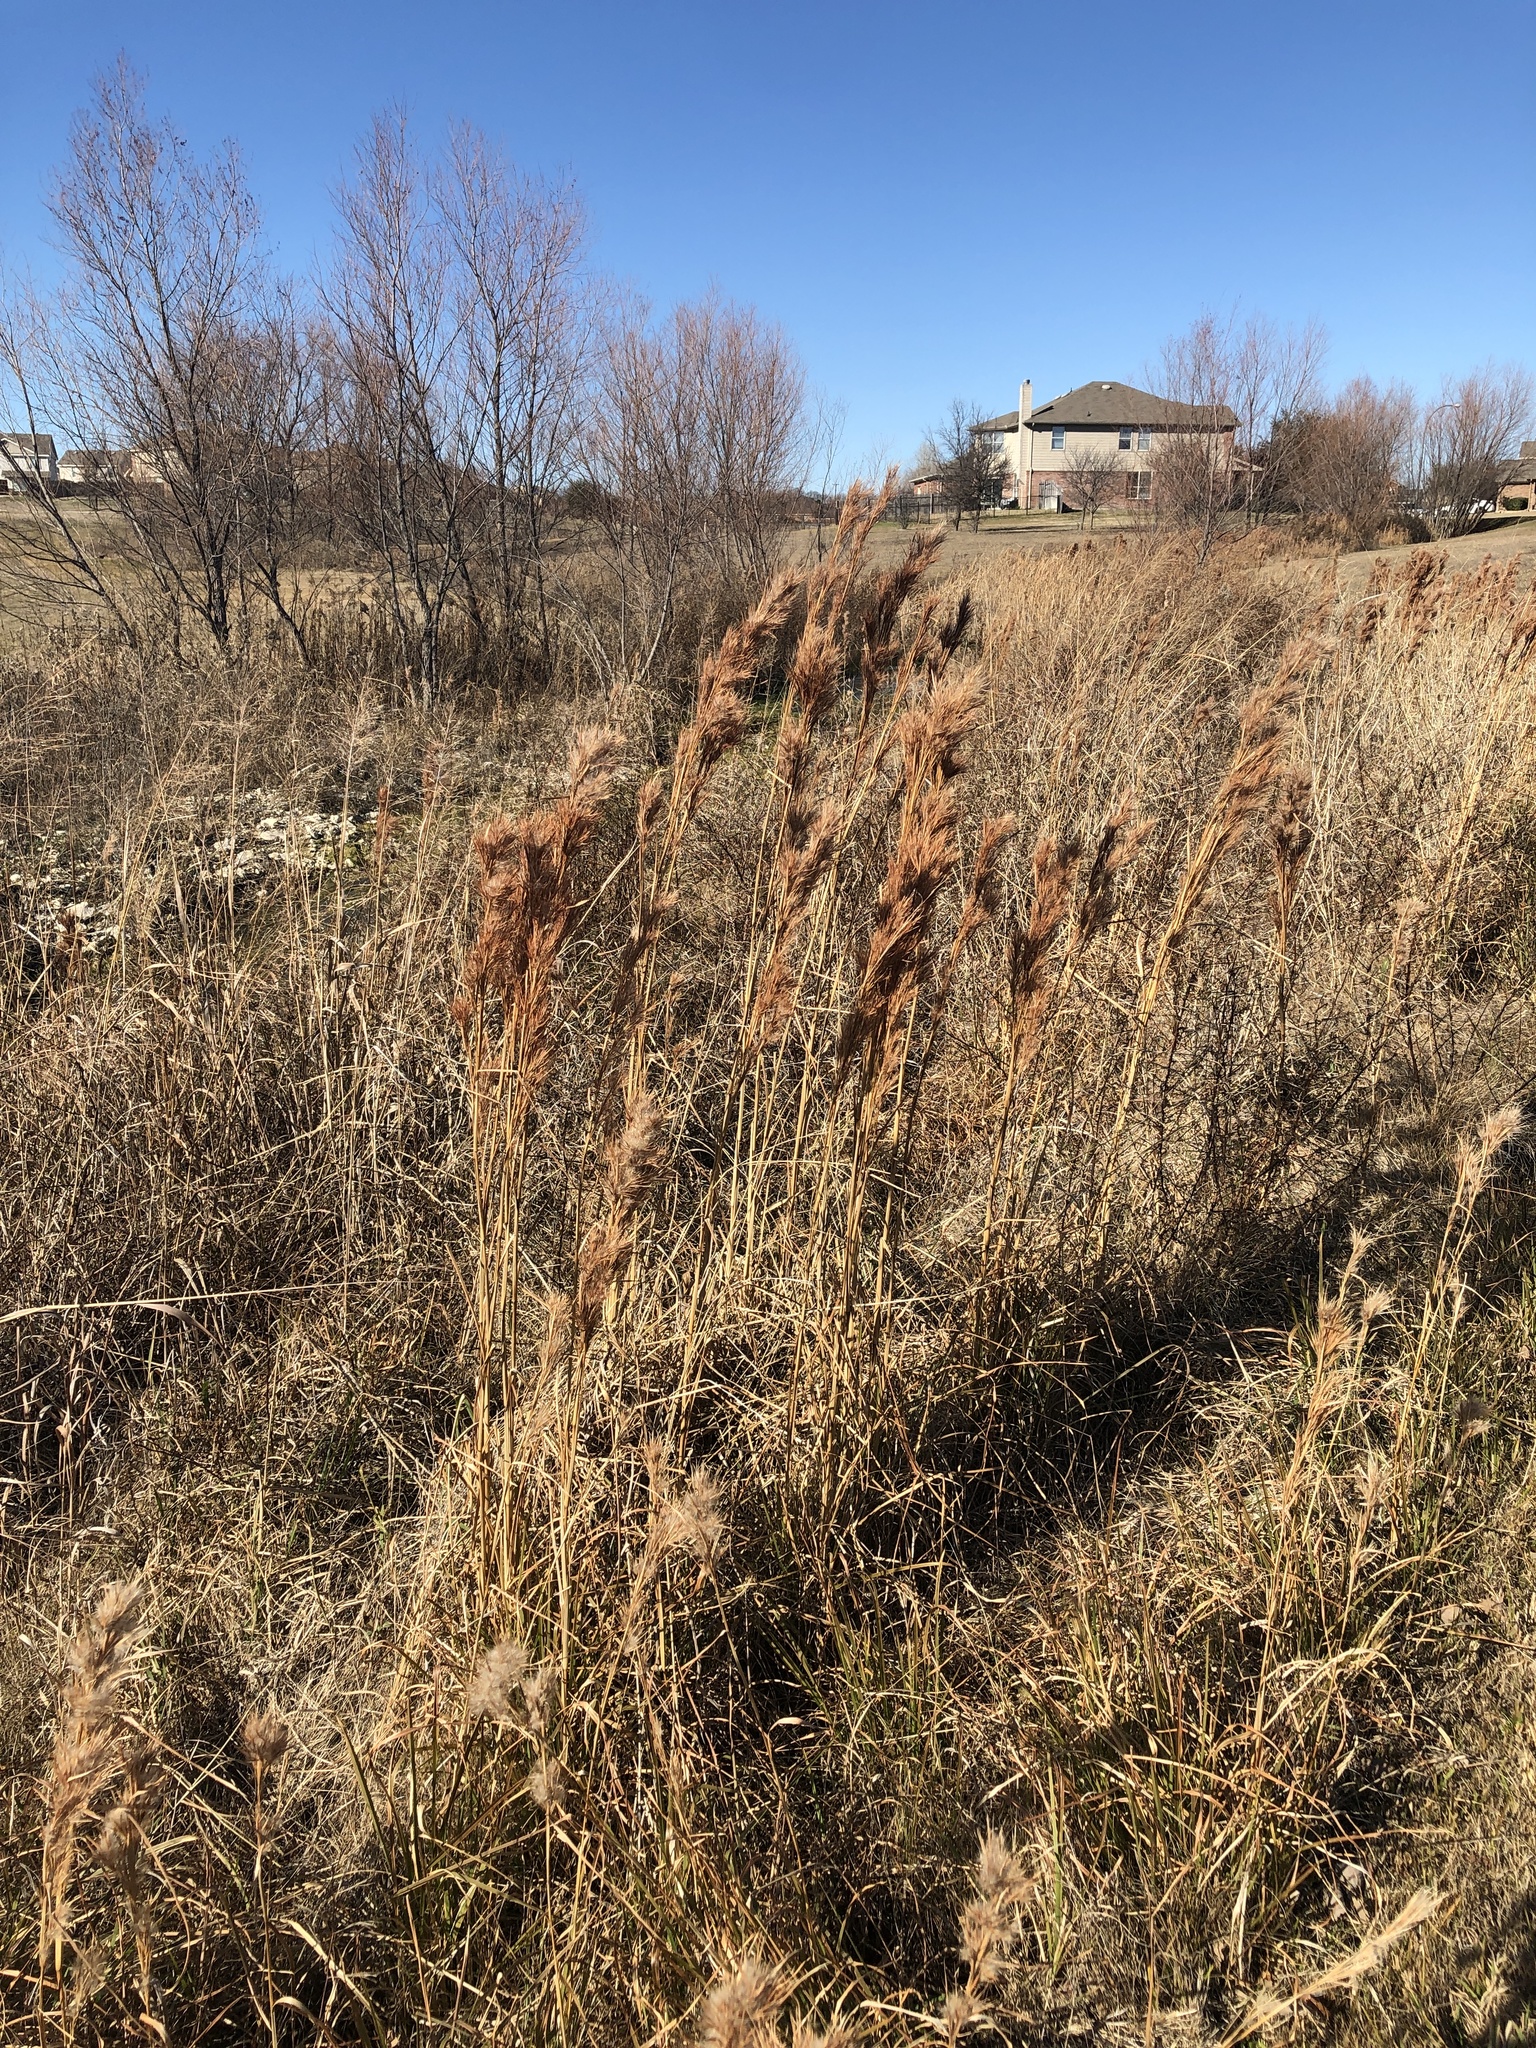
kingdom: Plantae
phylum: Tracheophyta
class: Liliopsida
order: Poales
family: Poaceae
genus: Andropogon
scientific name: Andropogon tenuispatheus
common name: Bushy bluestem
